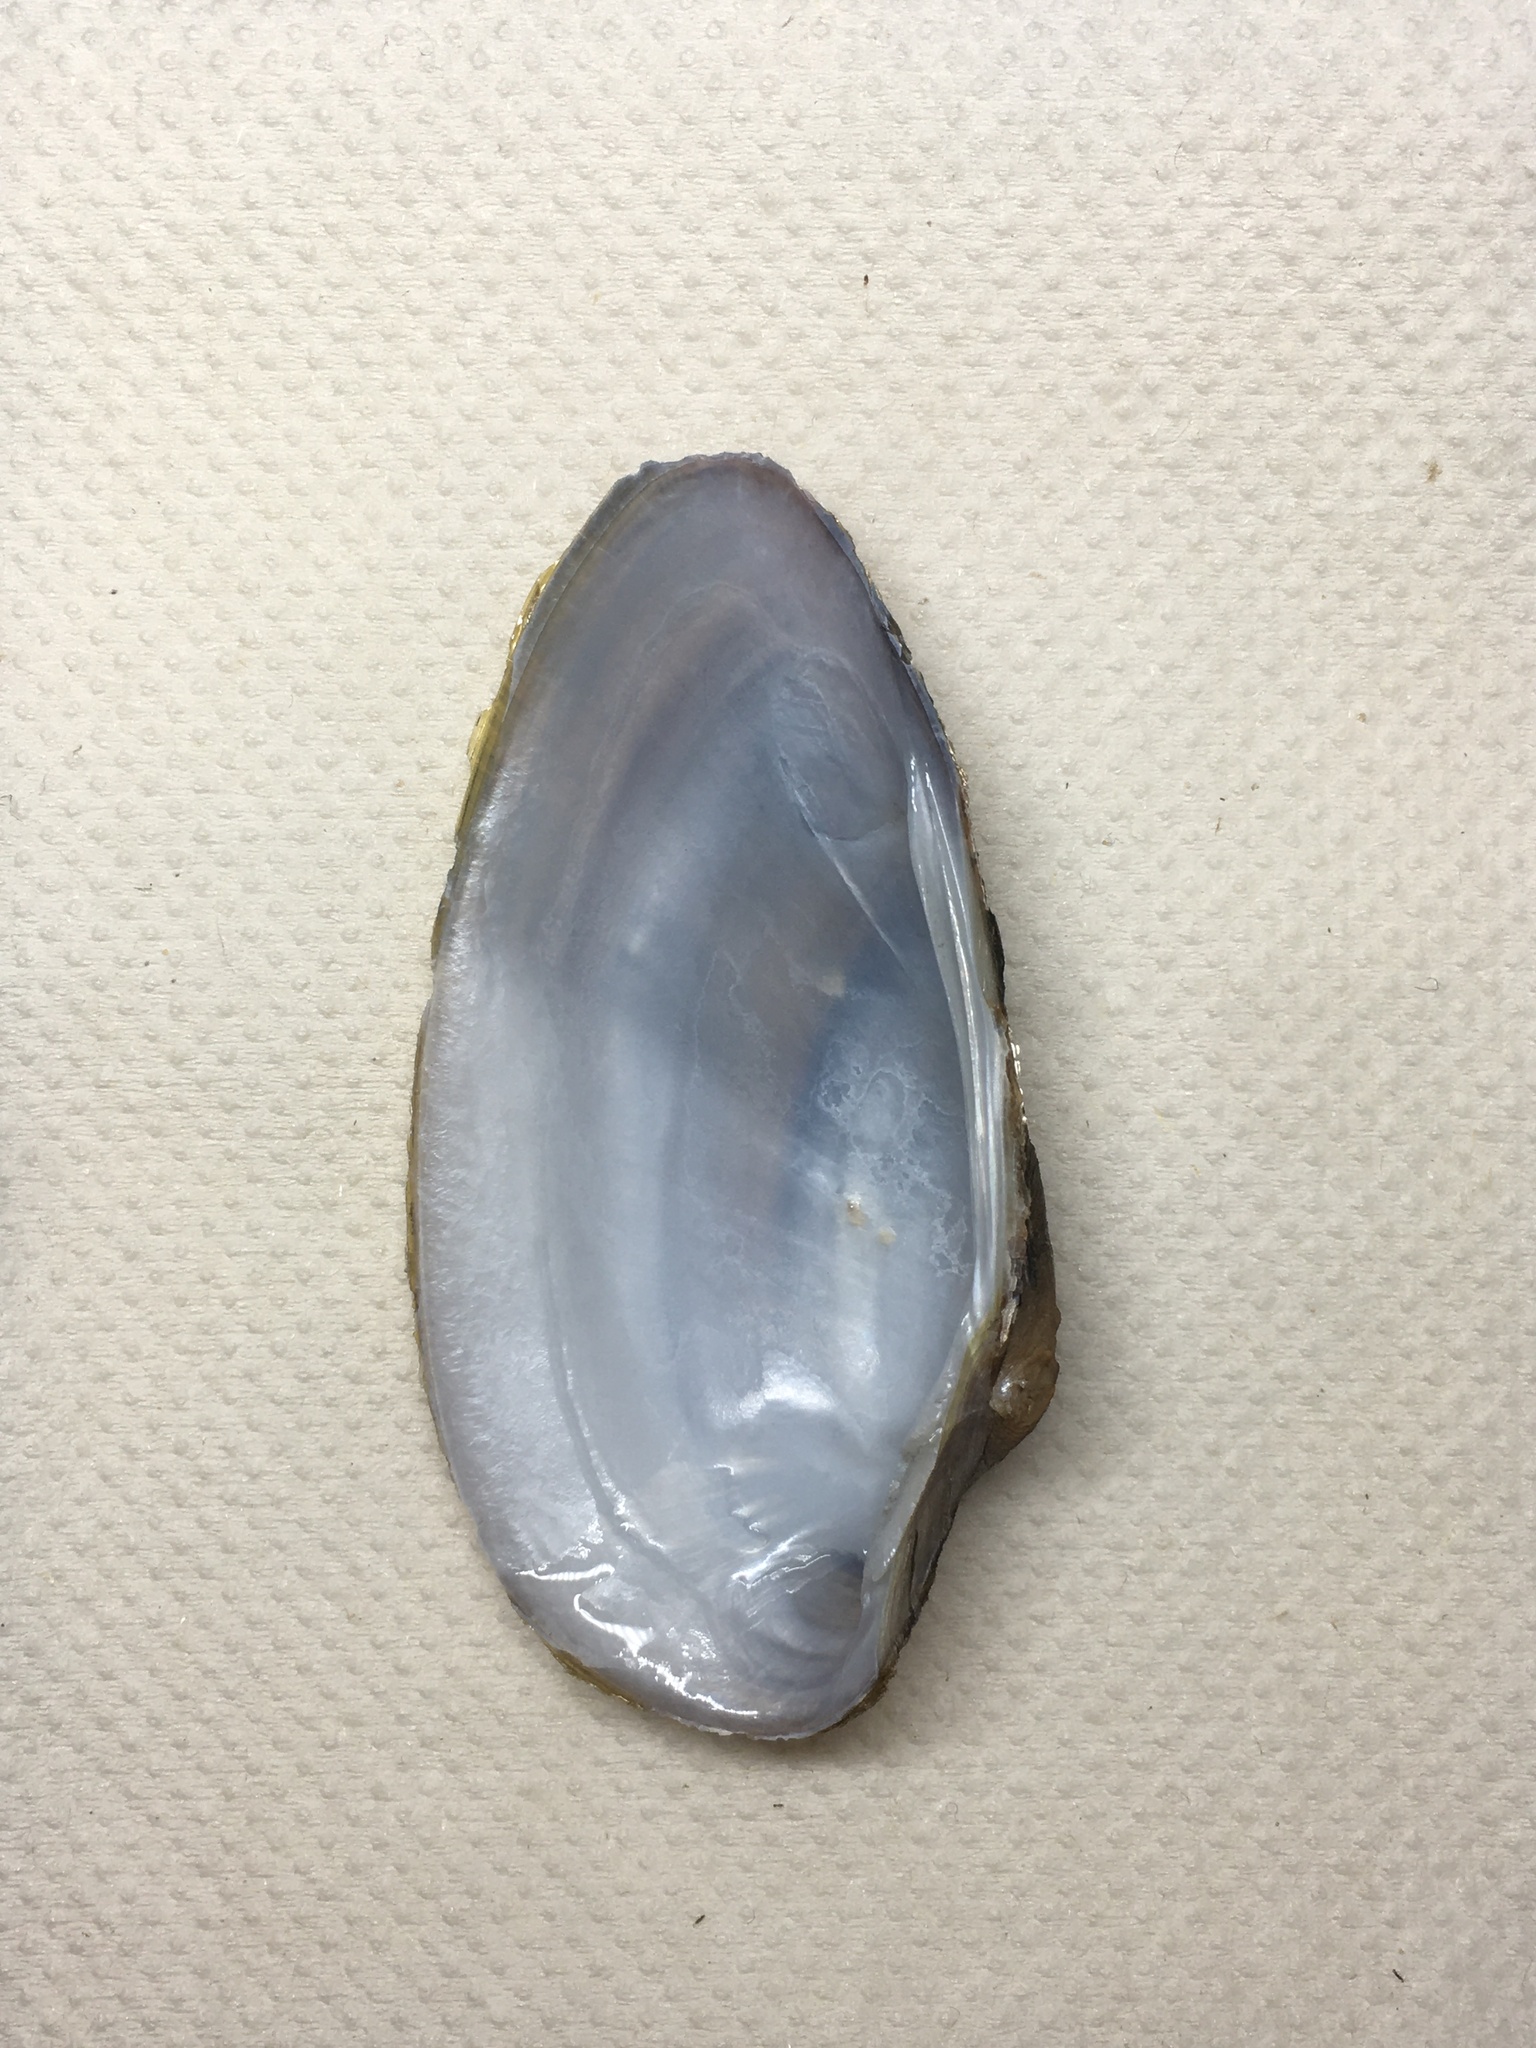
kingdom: Animalia
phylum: Mollusca
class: Bivalvia
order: Unionida
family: Unionidae
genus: Unio
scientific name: Unio tumidus
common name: Swollen river mussel
